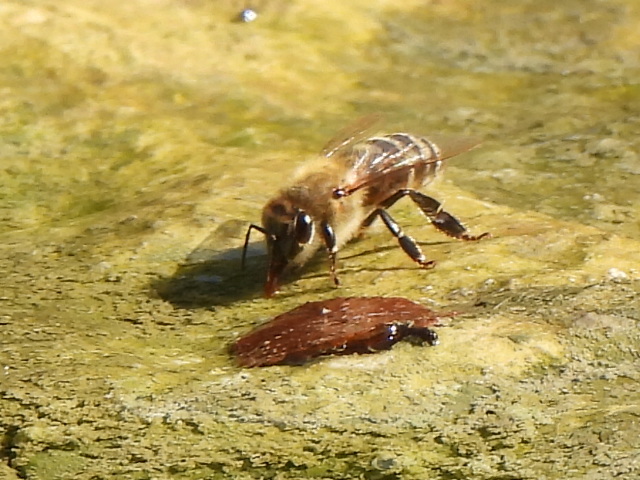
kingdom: Animalia
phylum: Arthropoda
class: Insecta
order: Hymenoptera
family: Apidae
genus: Apis
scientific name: Apis mellifera
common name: Honey bee
